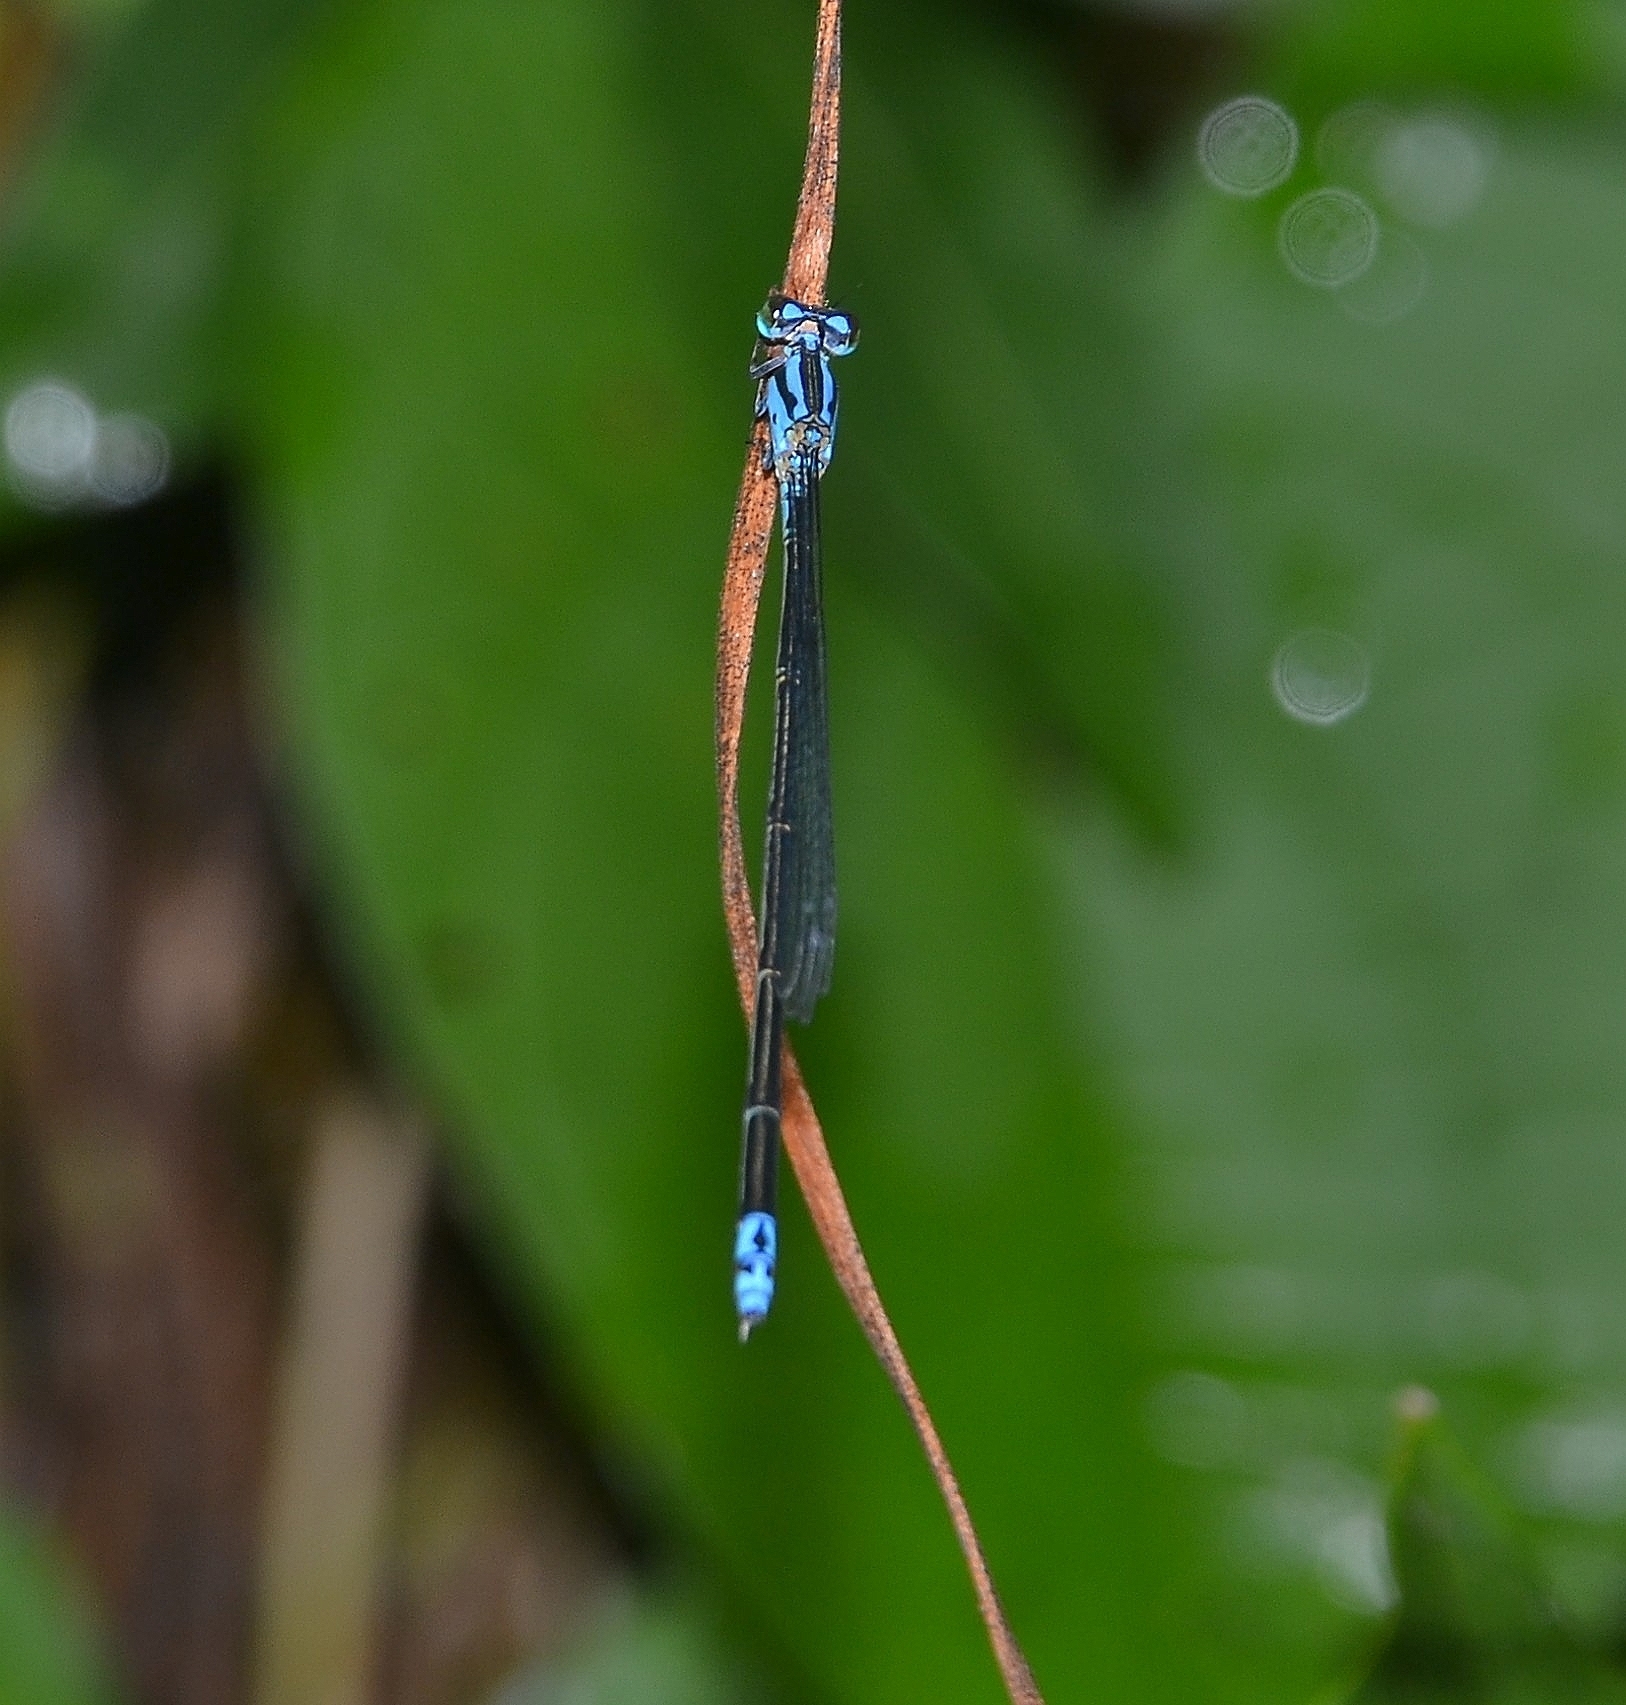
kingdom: Animalia
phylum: Arthropoda
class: Insecta
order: Odonata
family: Coenagrionidae
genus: Archibasis
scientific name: Archibasis oscillans
